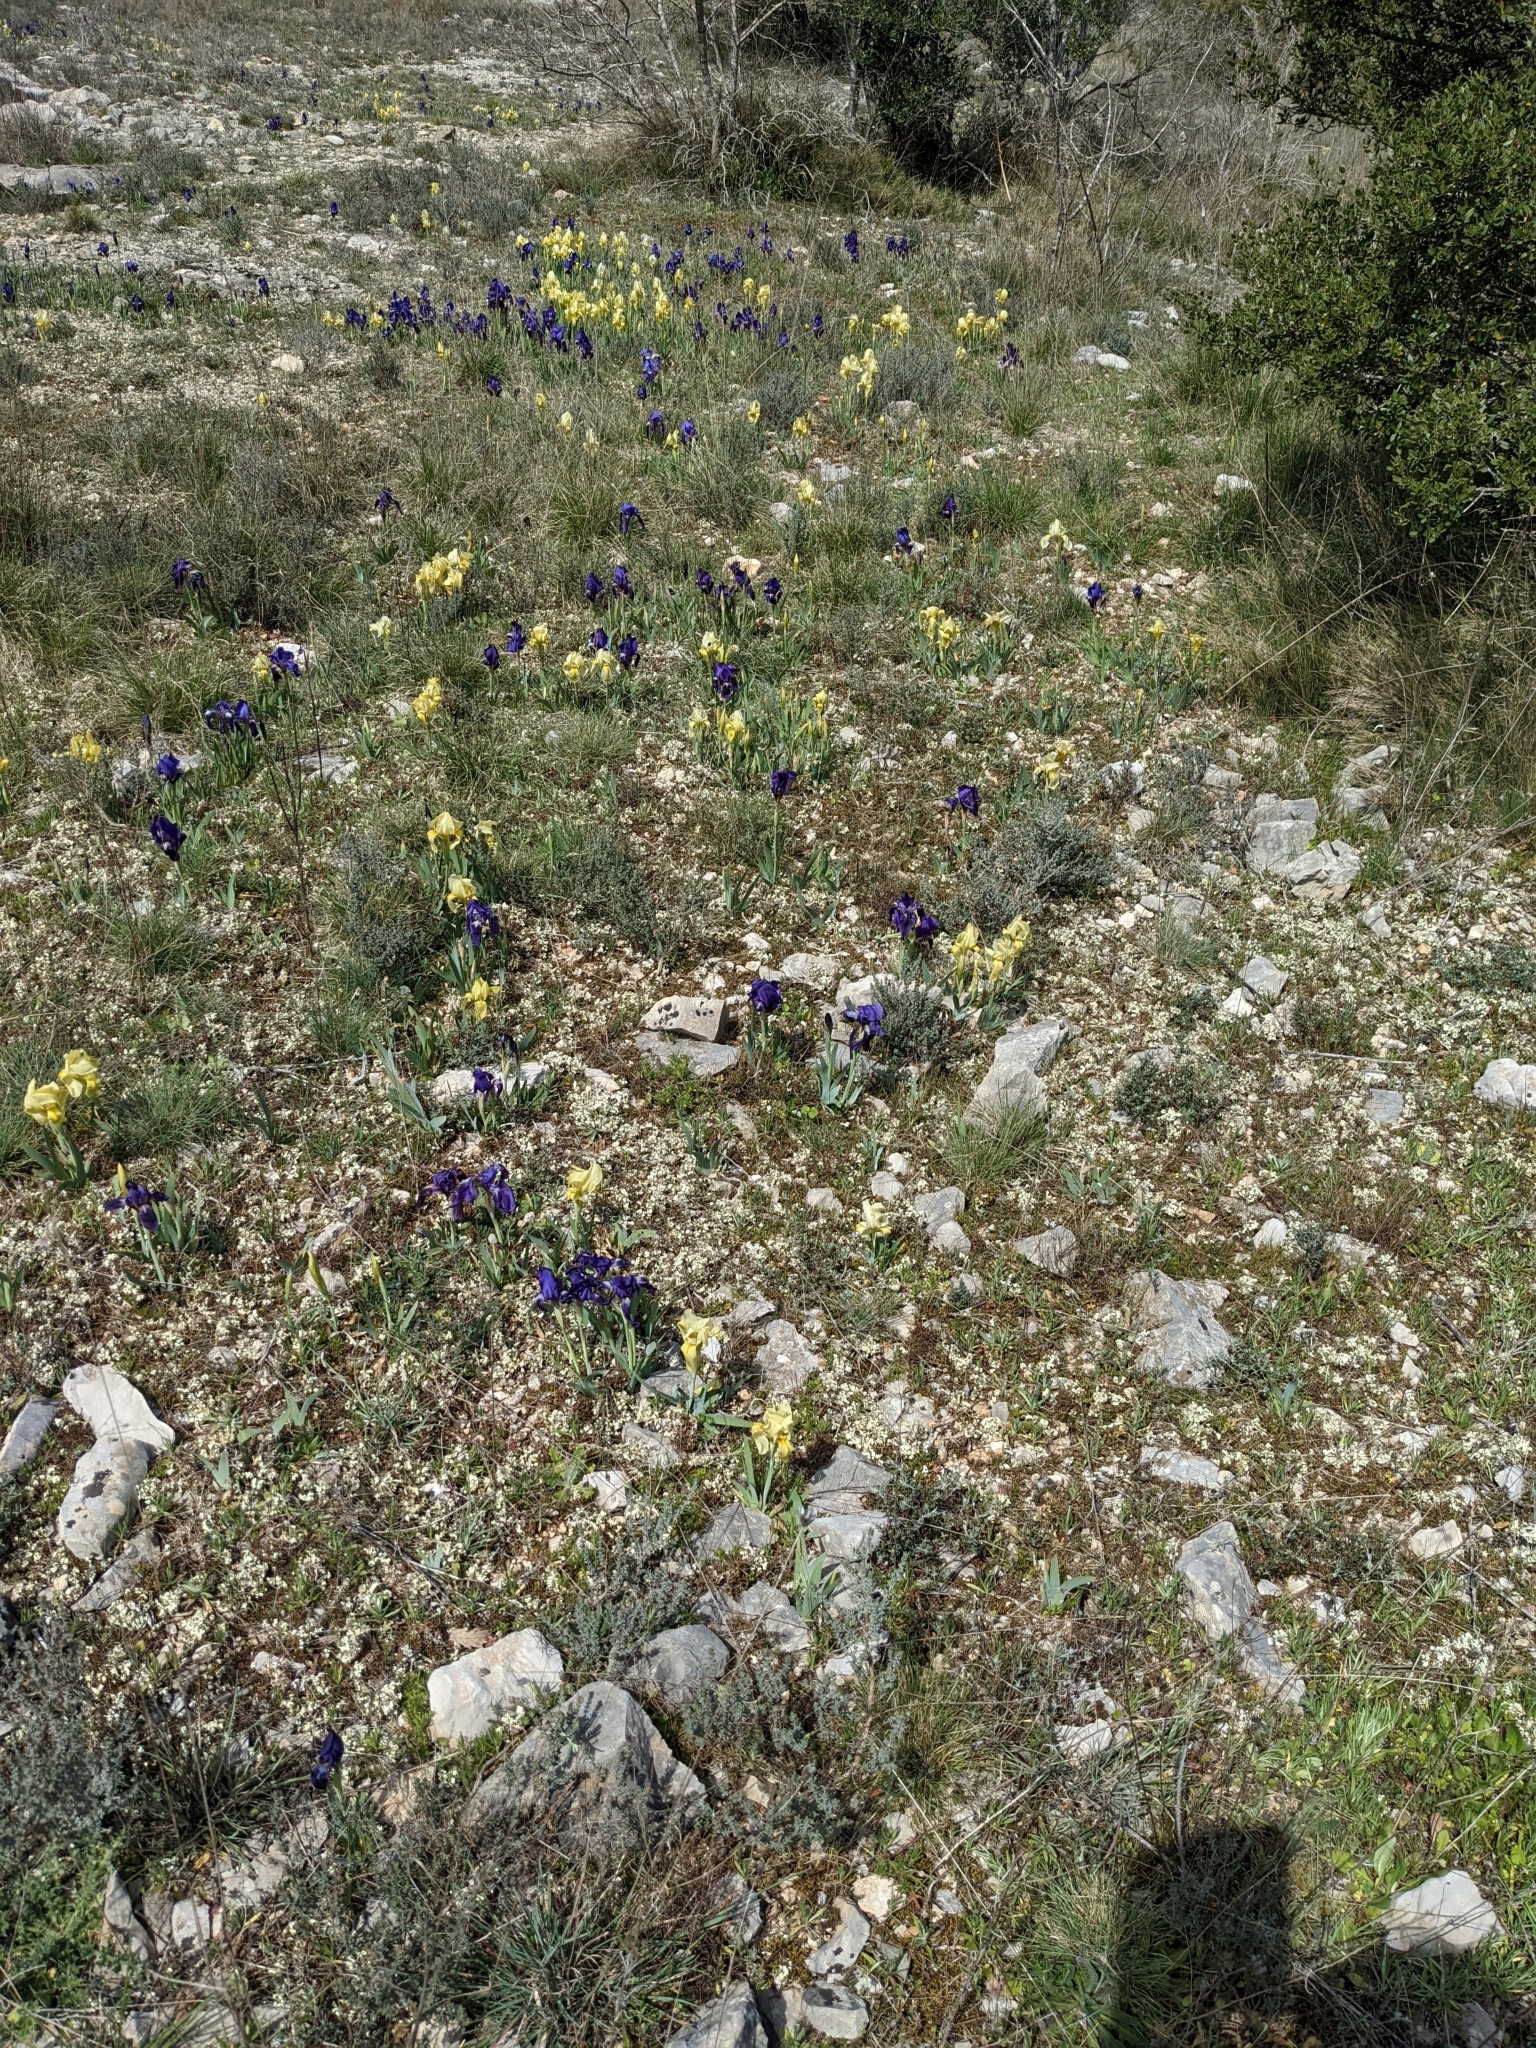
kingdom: Plantae
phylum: Tracheophyta
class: Liliopsida
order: Asparagales
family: Iridaceae
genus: Iris
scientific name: Iris lutescens
